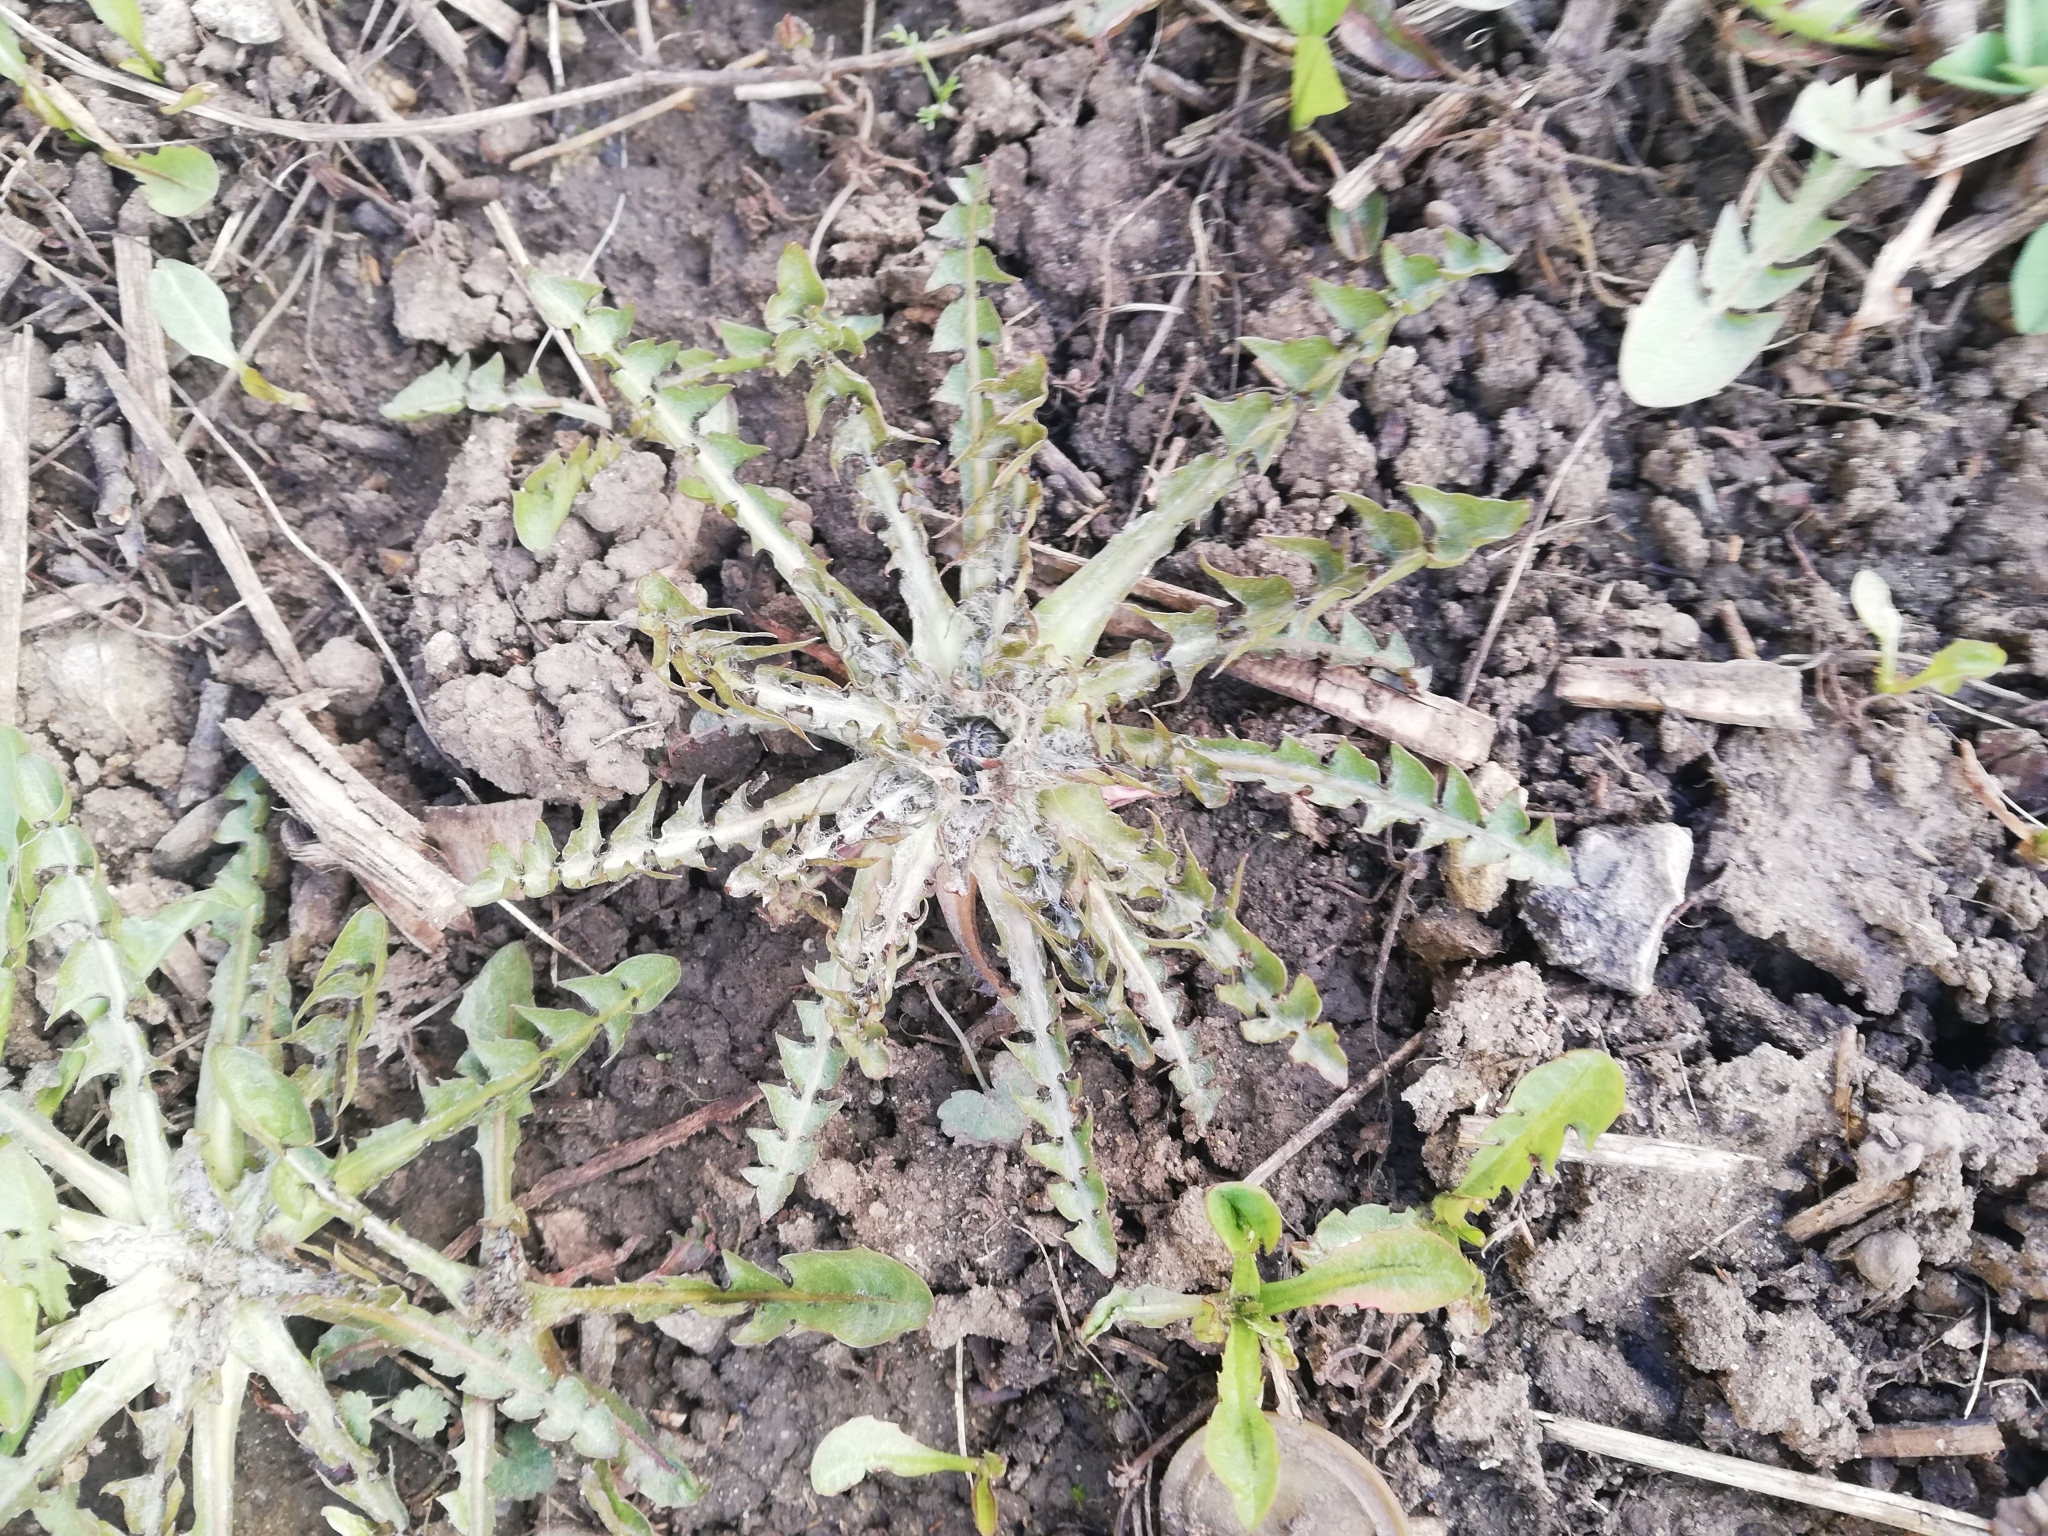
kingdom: Plantae
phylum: Tracheophyta
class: Magnoliopsida
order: Asterales
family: Asteraceae
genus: Taraxacum
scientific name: Taraxacum officinale
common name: Common dandelion
